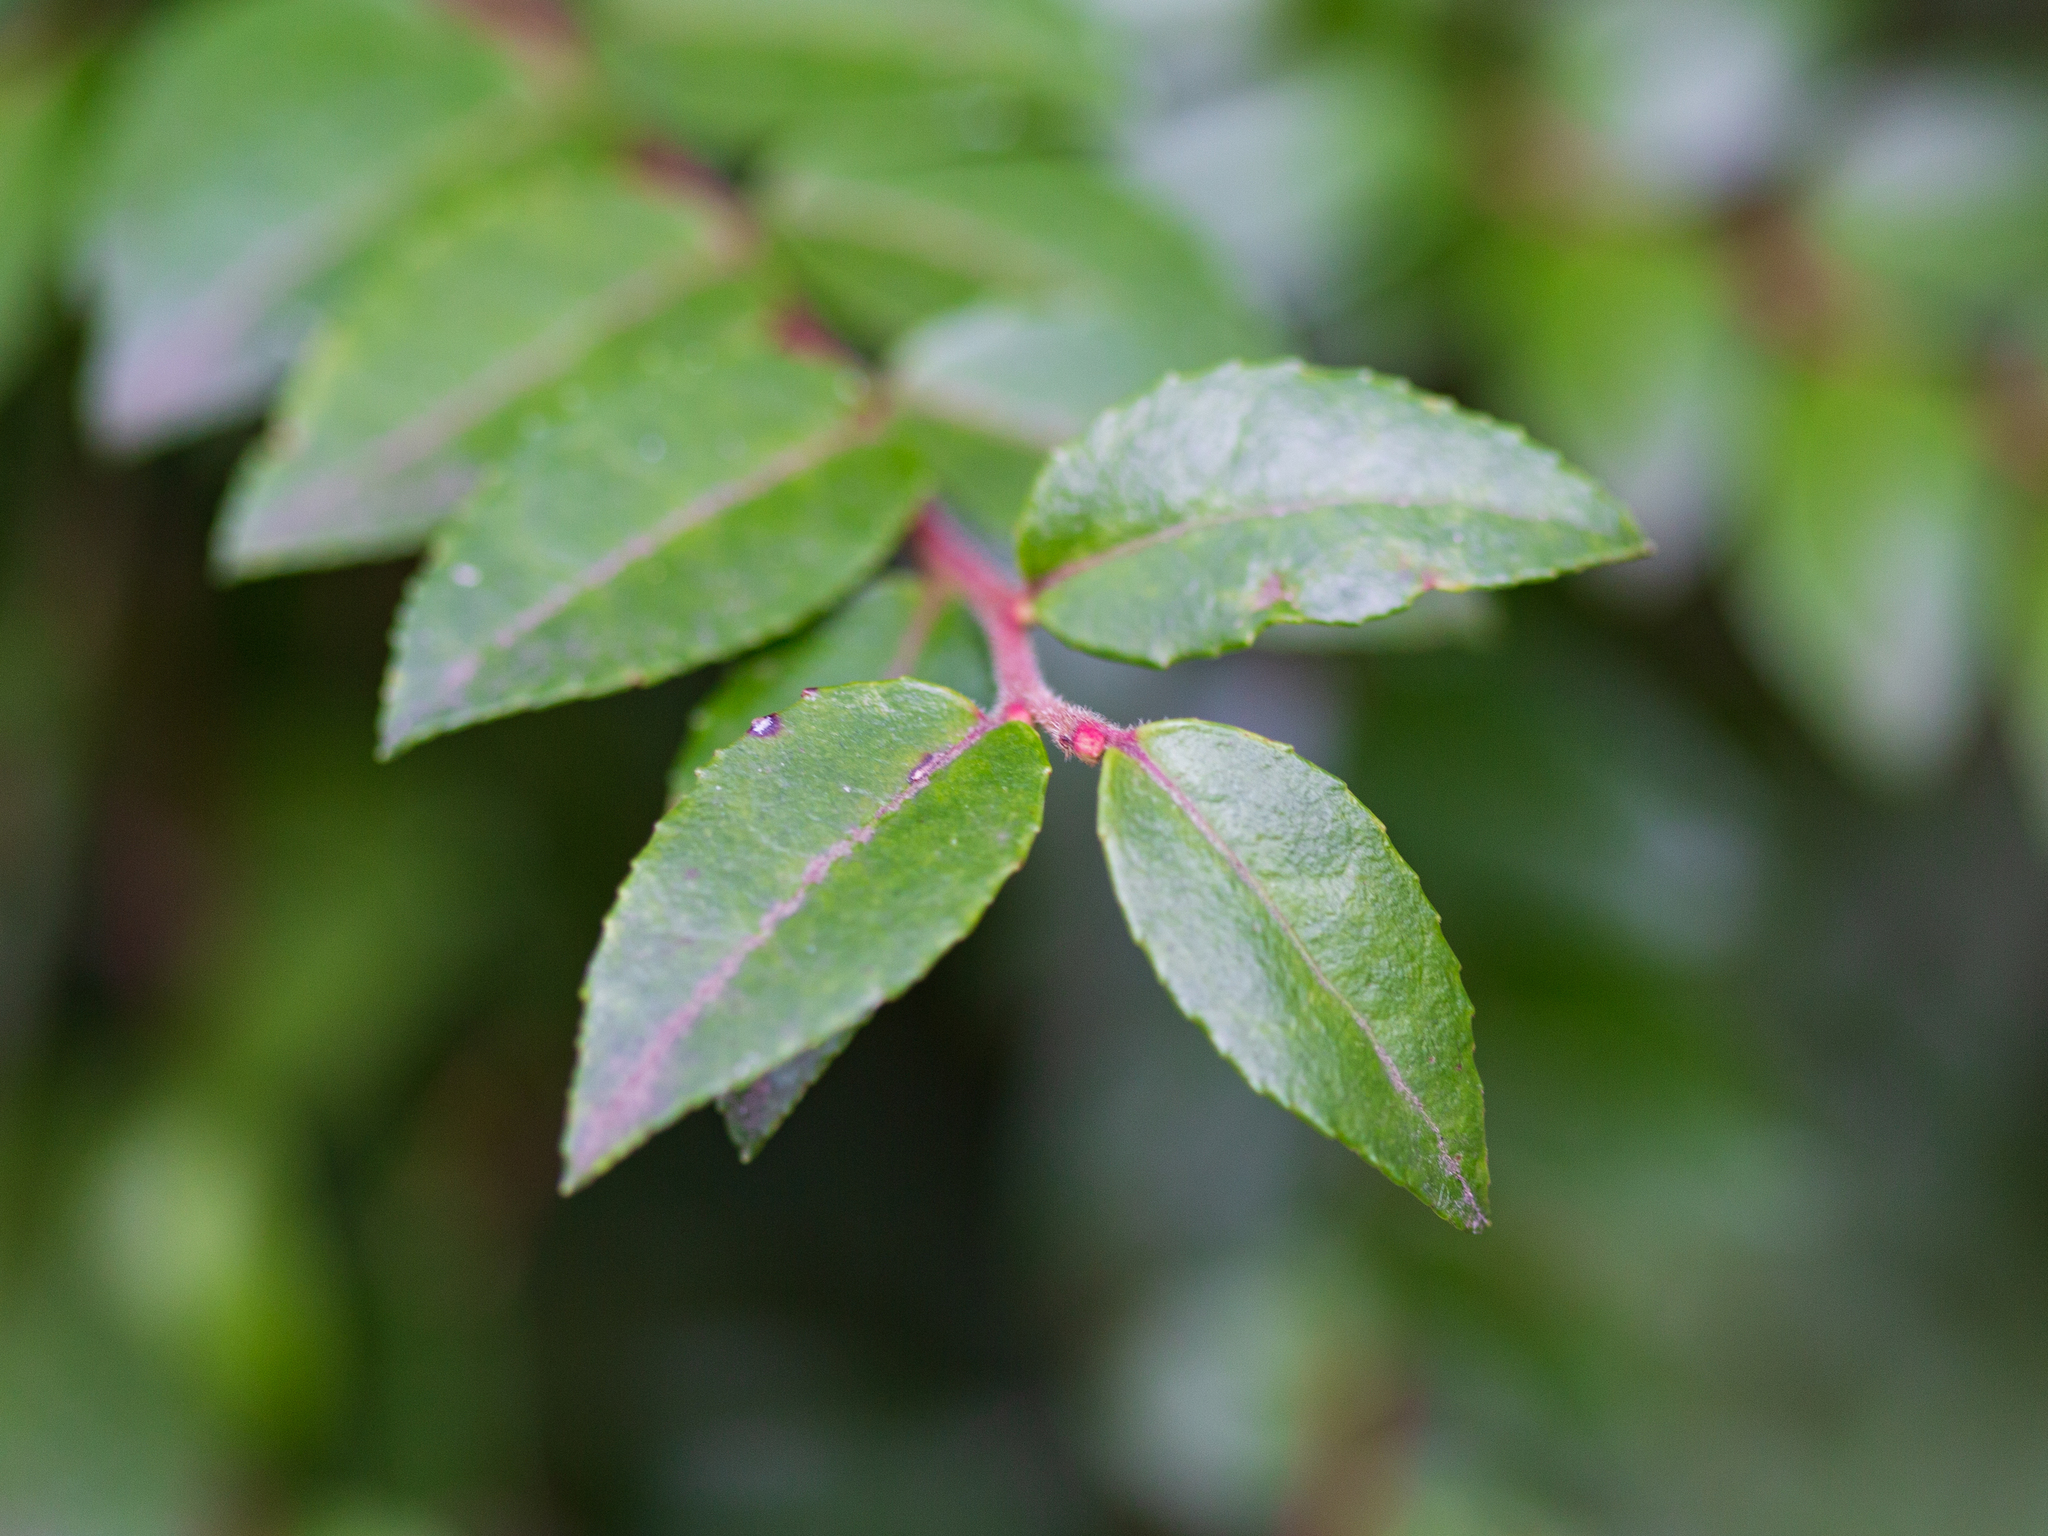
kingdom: Plantae
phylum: Tracheophyta
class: Magnoliopsida
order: Ericales
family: Ericaceae
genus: Vaccinium
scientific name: Vaccinium ovatum
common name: California-huckleberry
